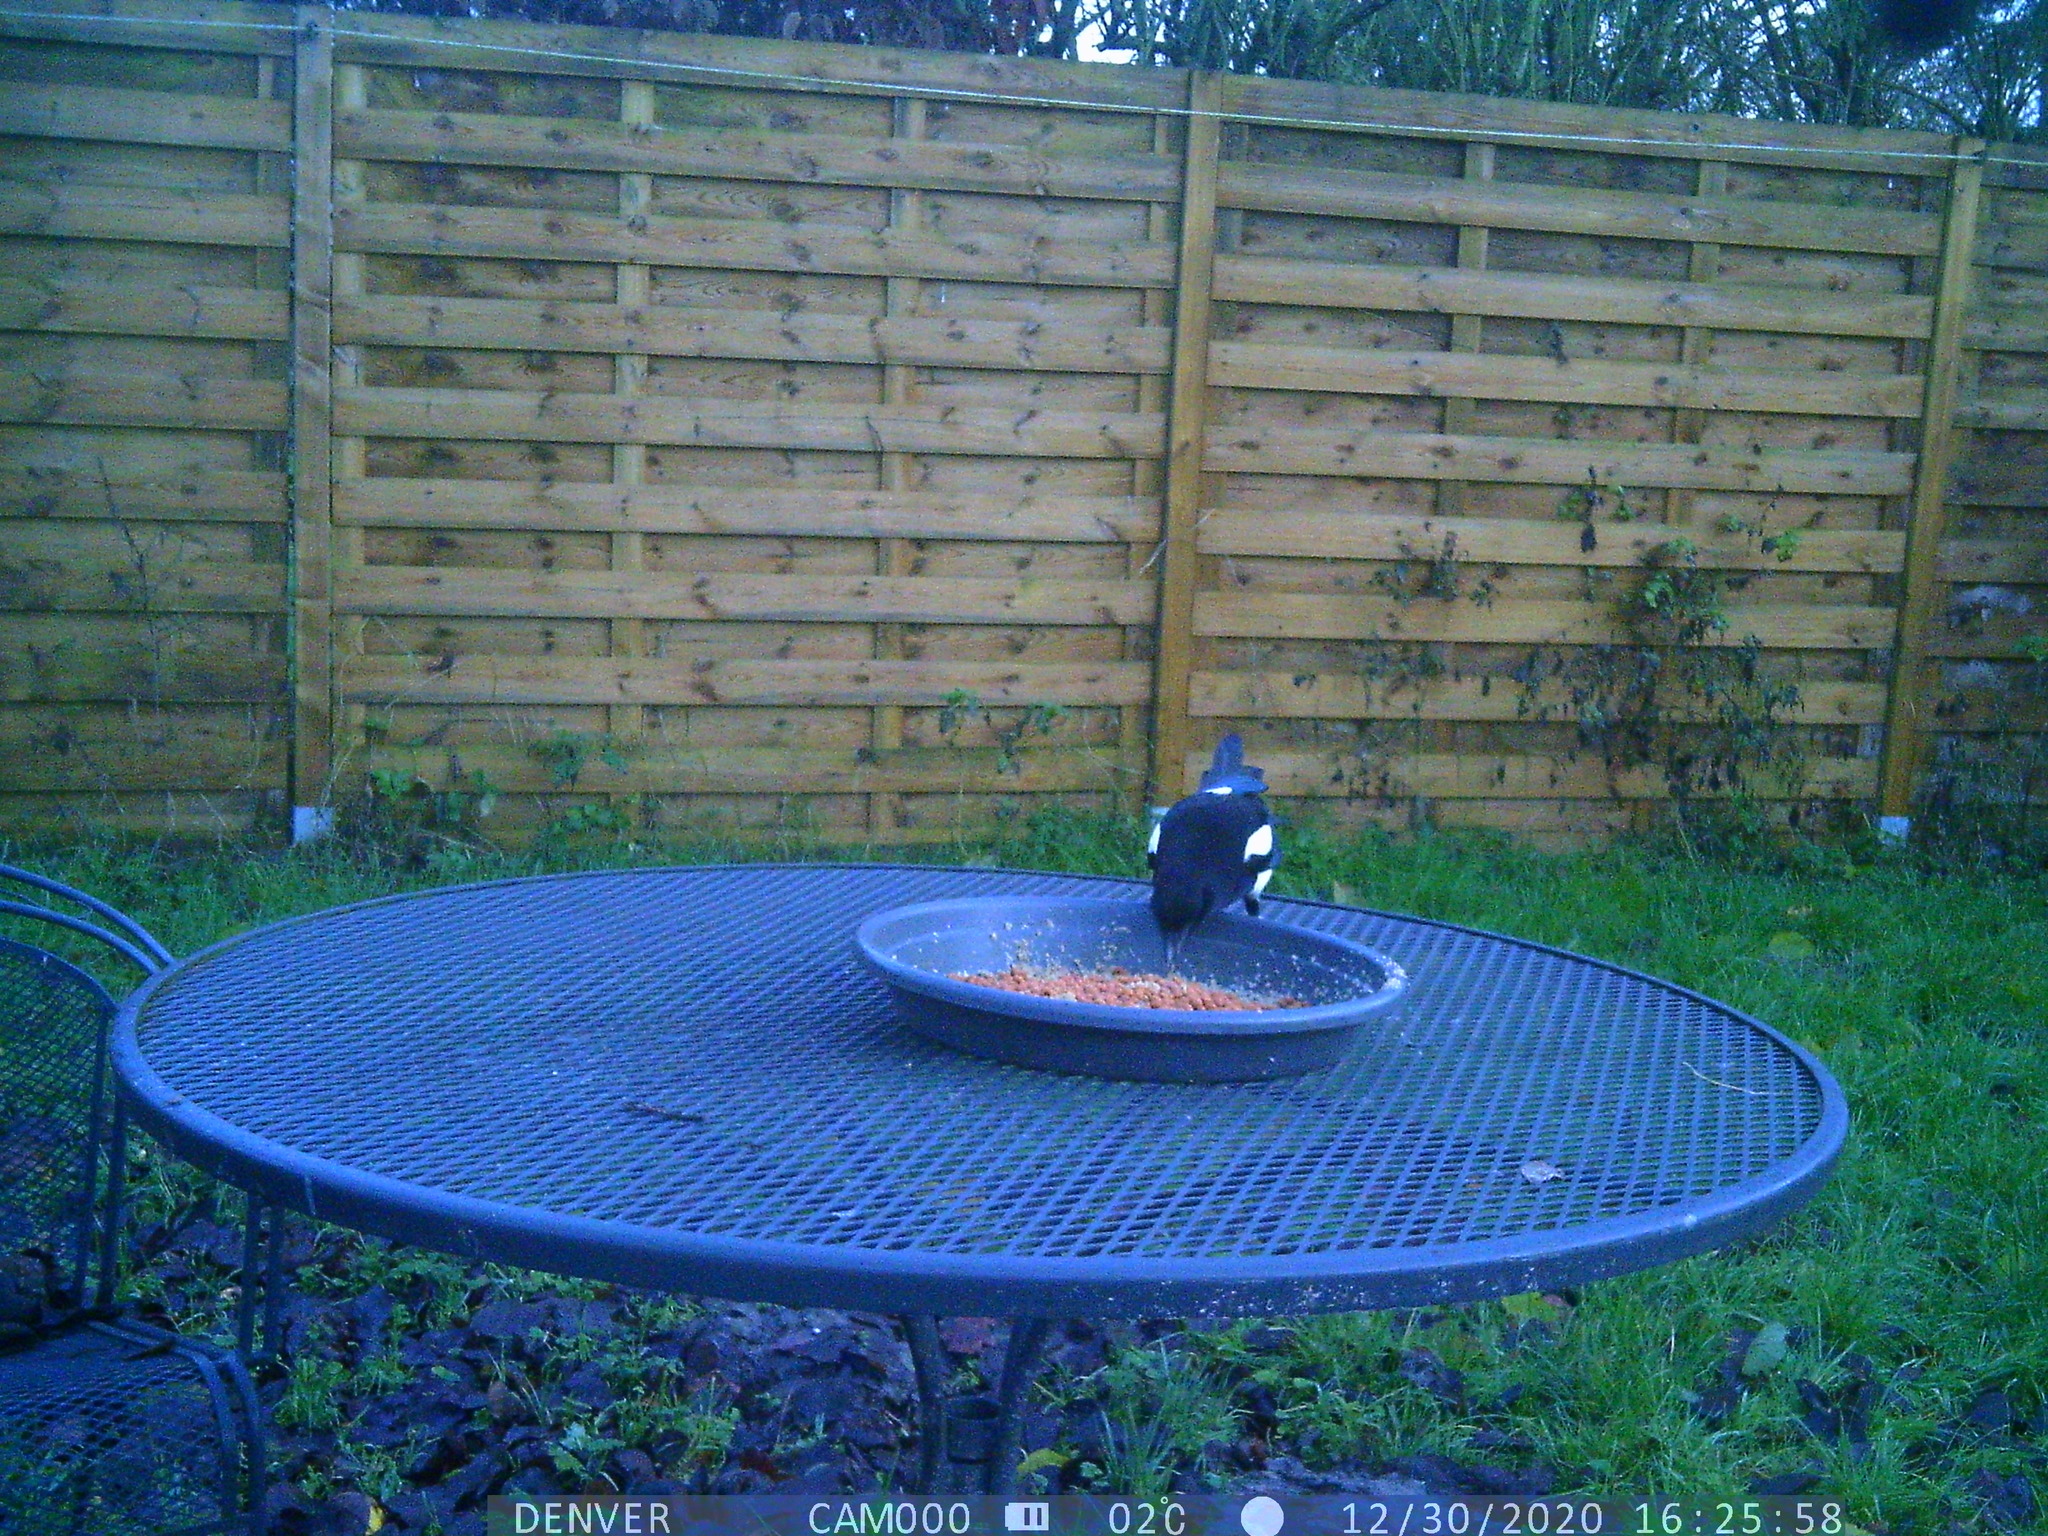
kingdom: Animalia
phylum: Chordata
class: Aves
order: Passeriformes
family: Corvidae
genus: Pica
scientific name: Pica pica
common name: Eurasian magpie
